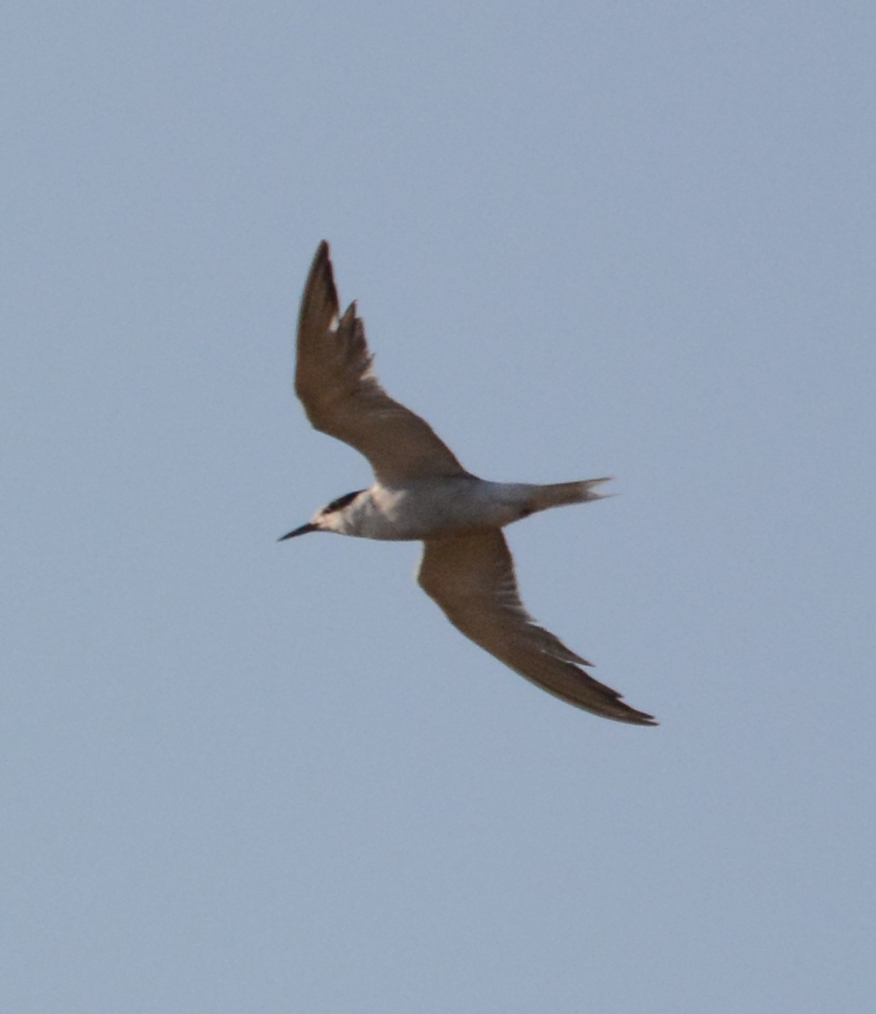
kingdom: Animalia
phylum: Chordata
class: Aves
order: Charadriiformes
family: Laridae
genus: Thalasseus
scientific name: Thalasseus sandvicensis
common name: Sandwich tern
